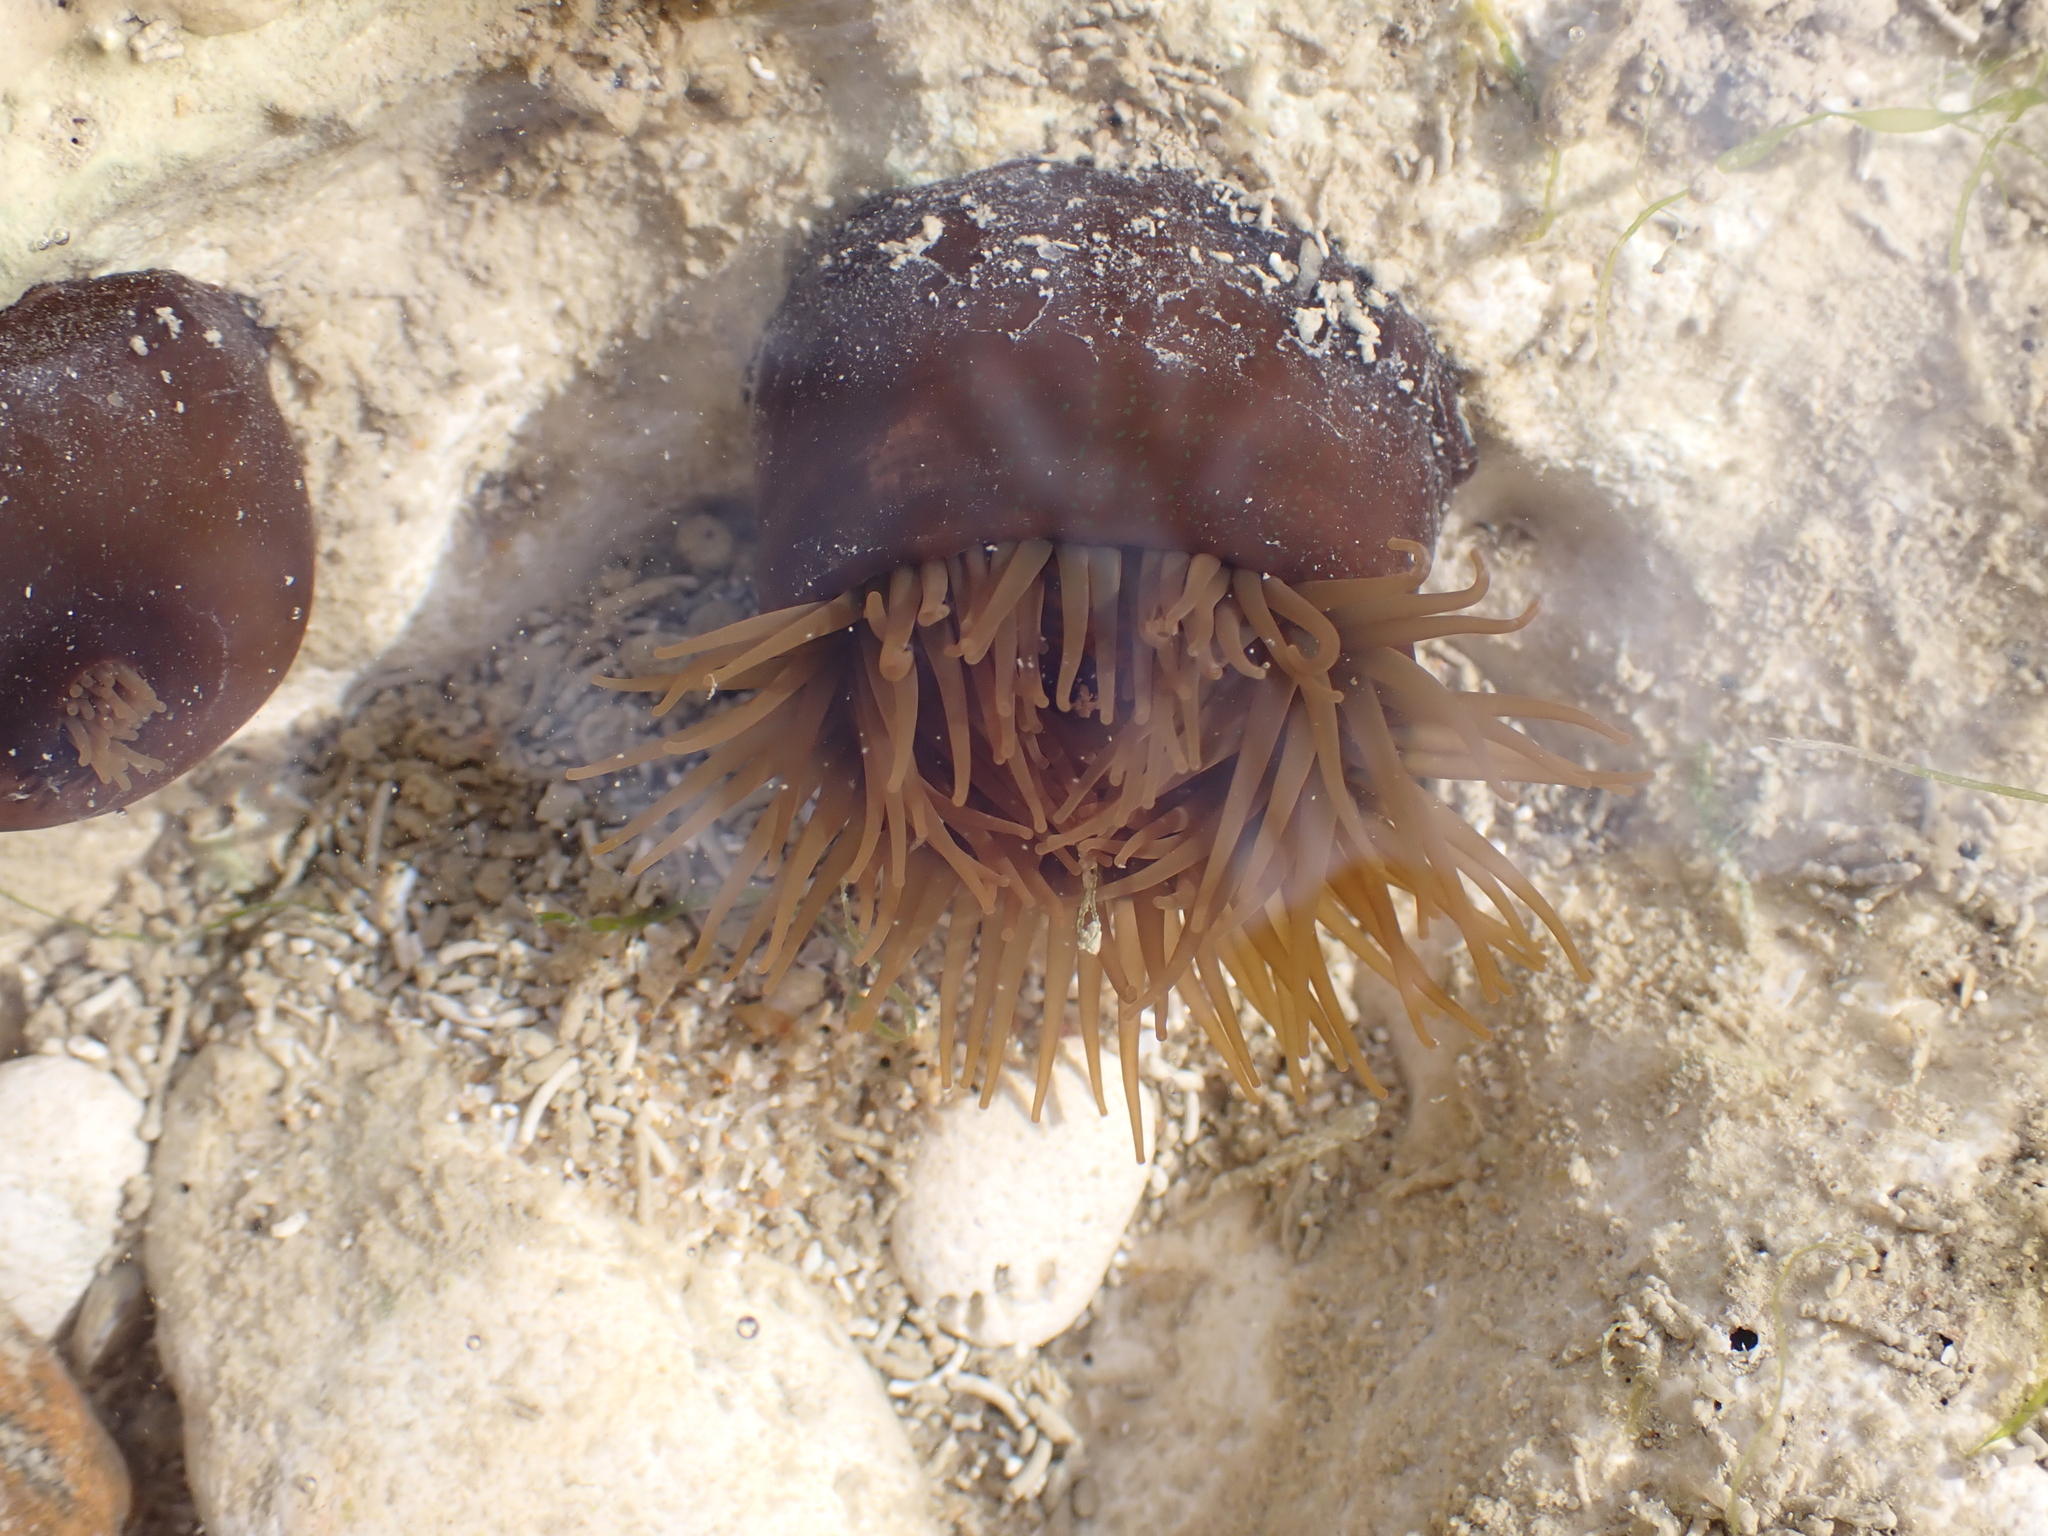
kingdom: Animalia
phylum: Cnidaria
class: Anthozoa
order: Actiniaria
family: Actiniidae
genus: Actinia
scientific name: Actinia equina
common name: Beadlet anemone
